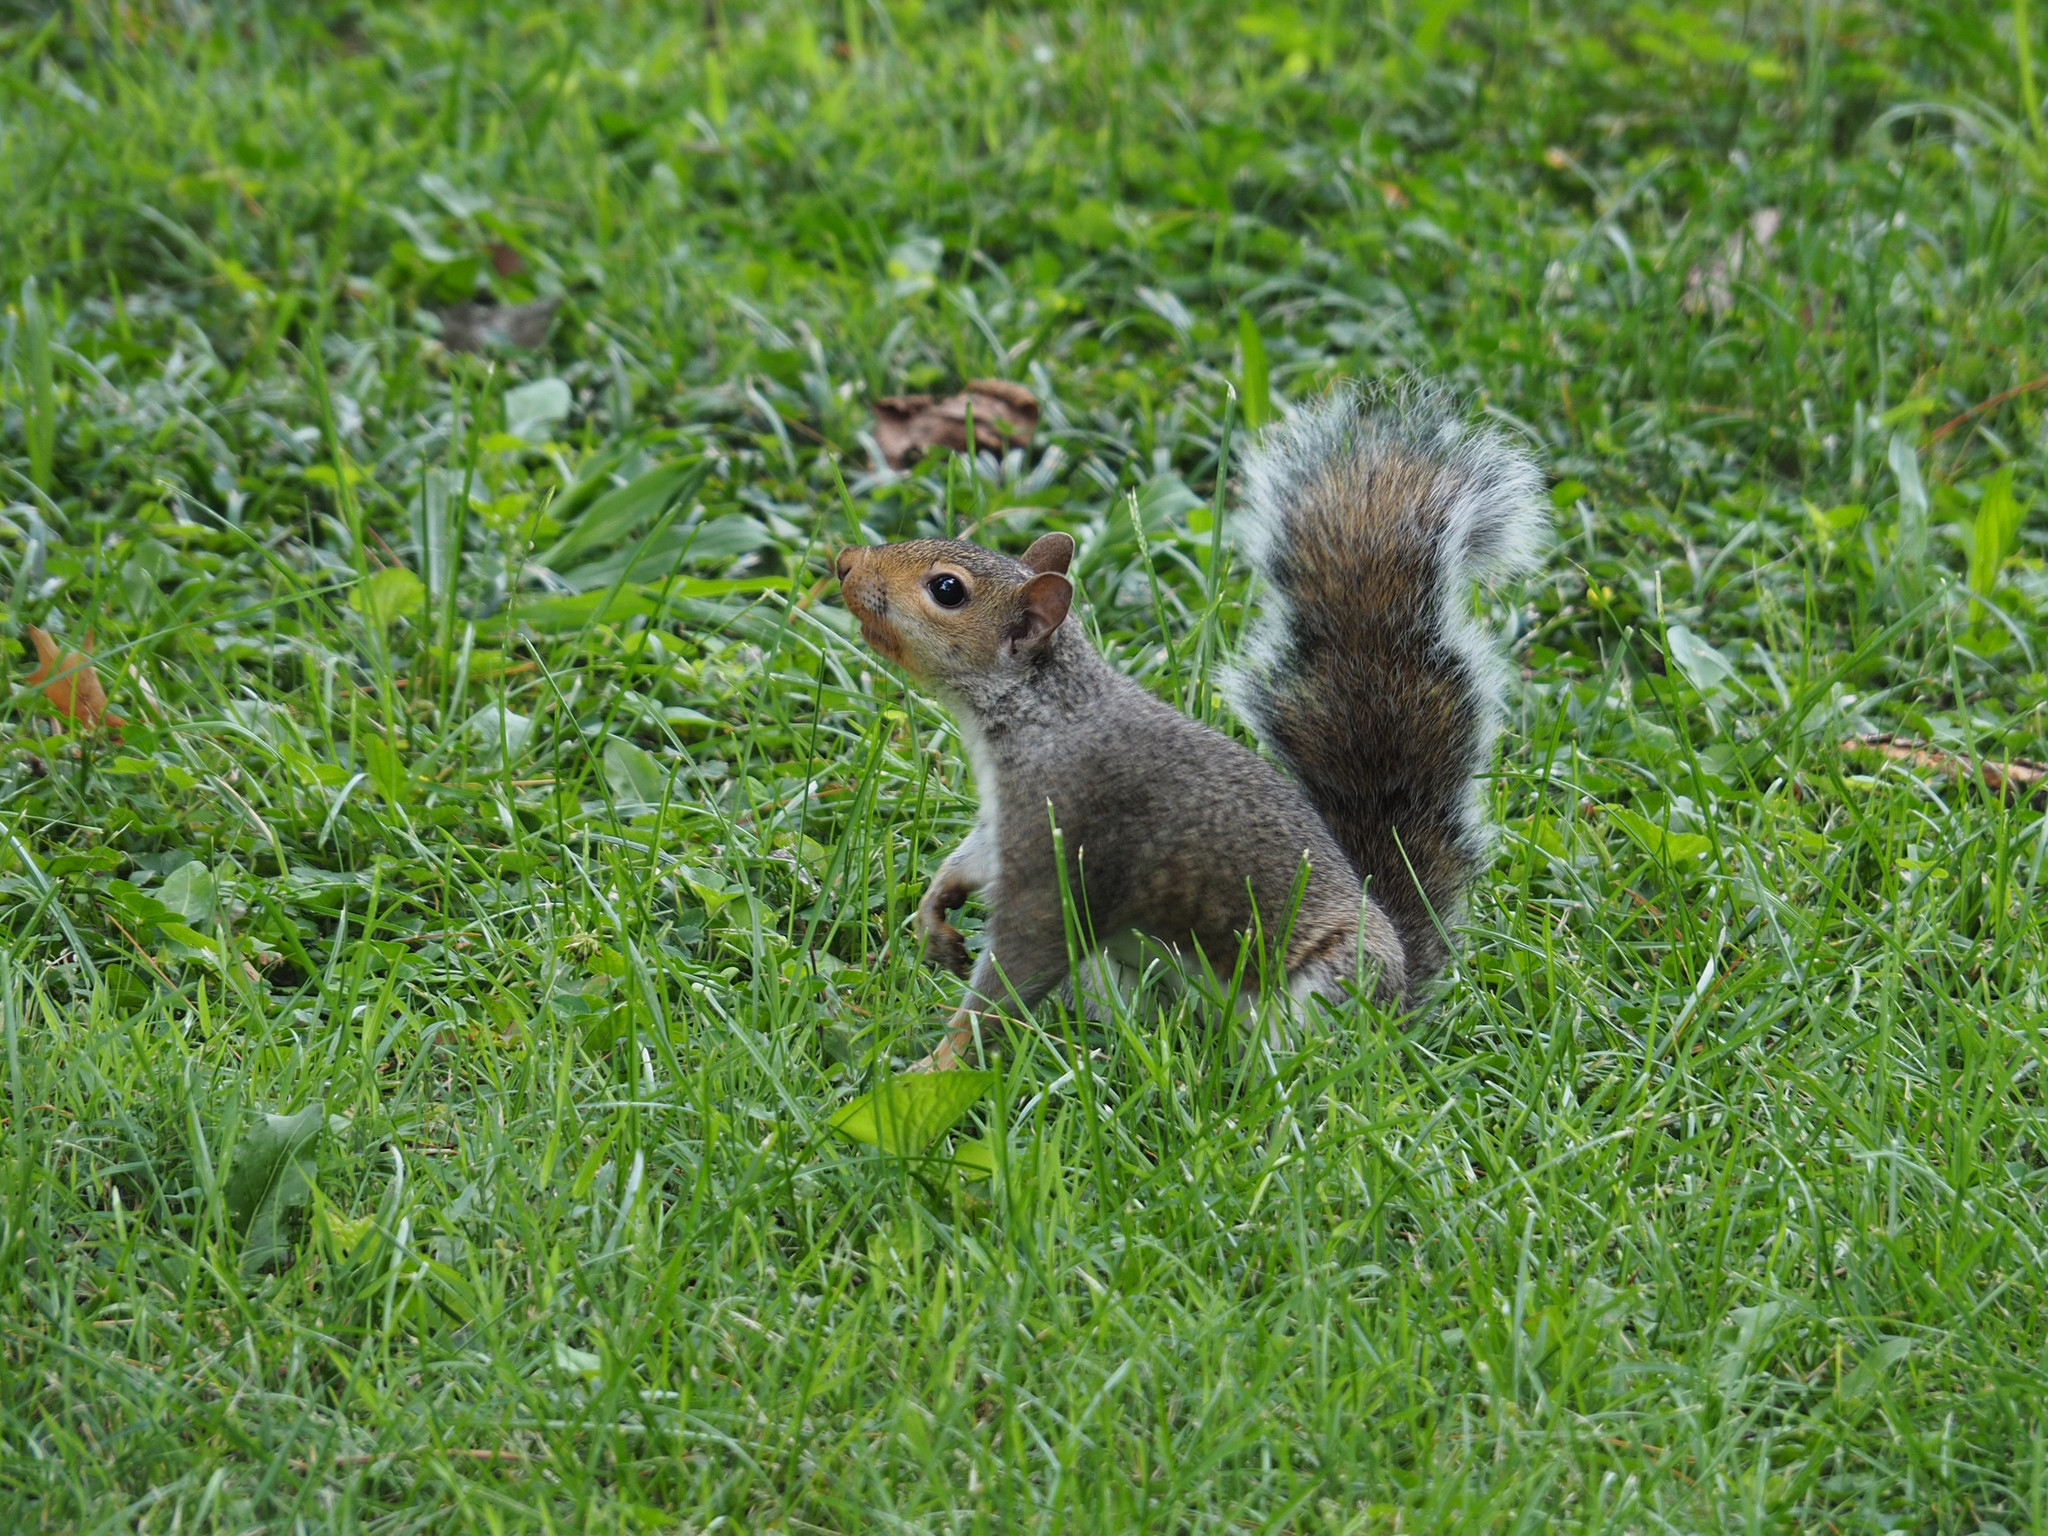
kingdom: Animalia
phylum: Chordata
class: Mammalia
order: Rodentia
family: Sciuridae
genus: Sciurus
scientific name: Sciurus carolinensis
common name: Eastern gray squirrel
